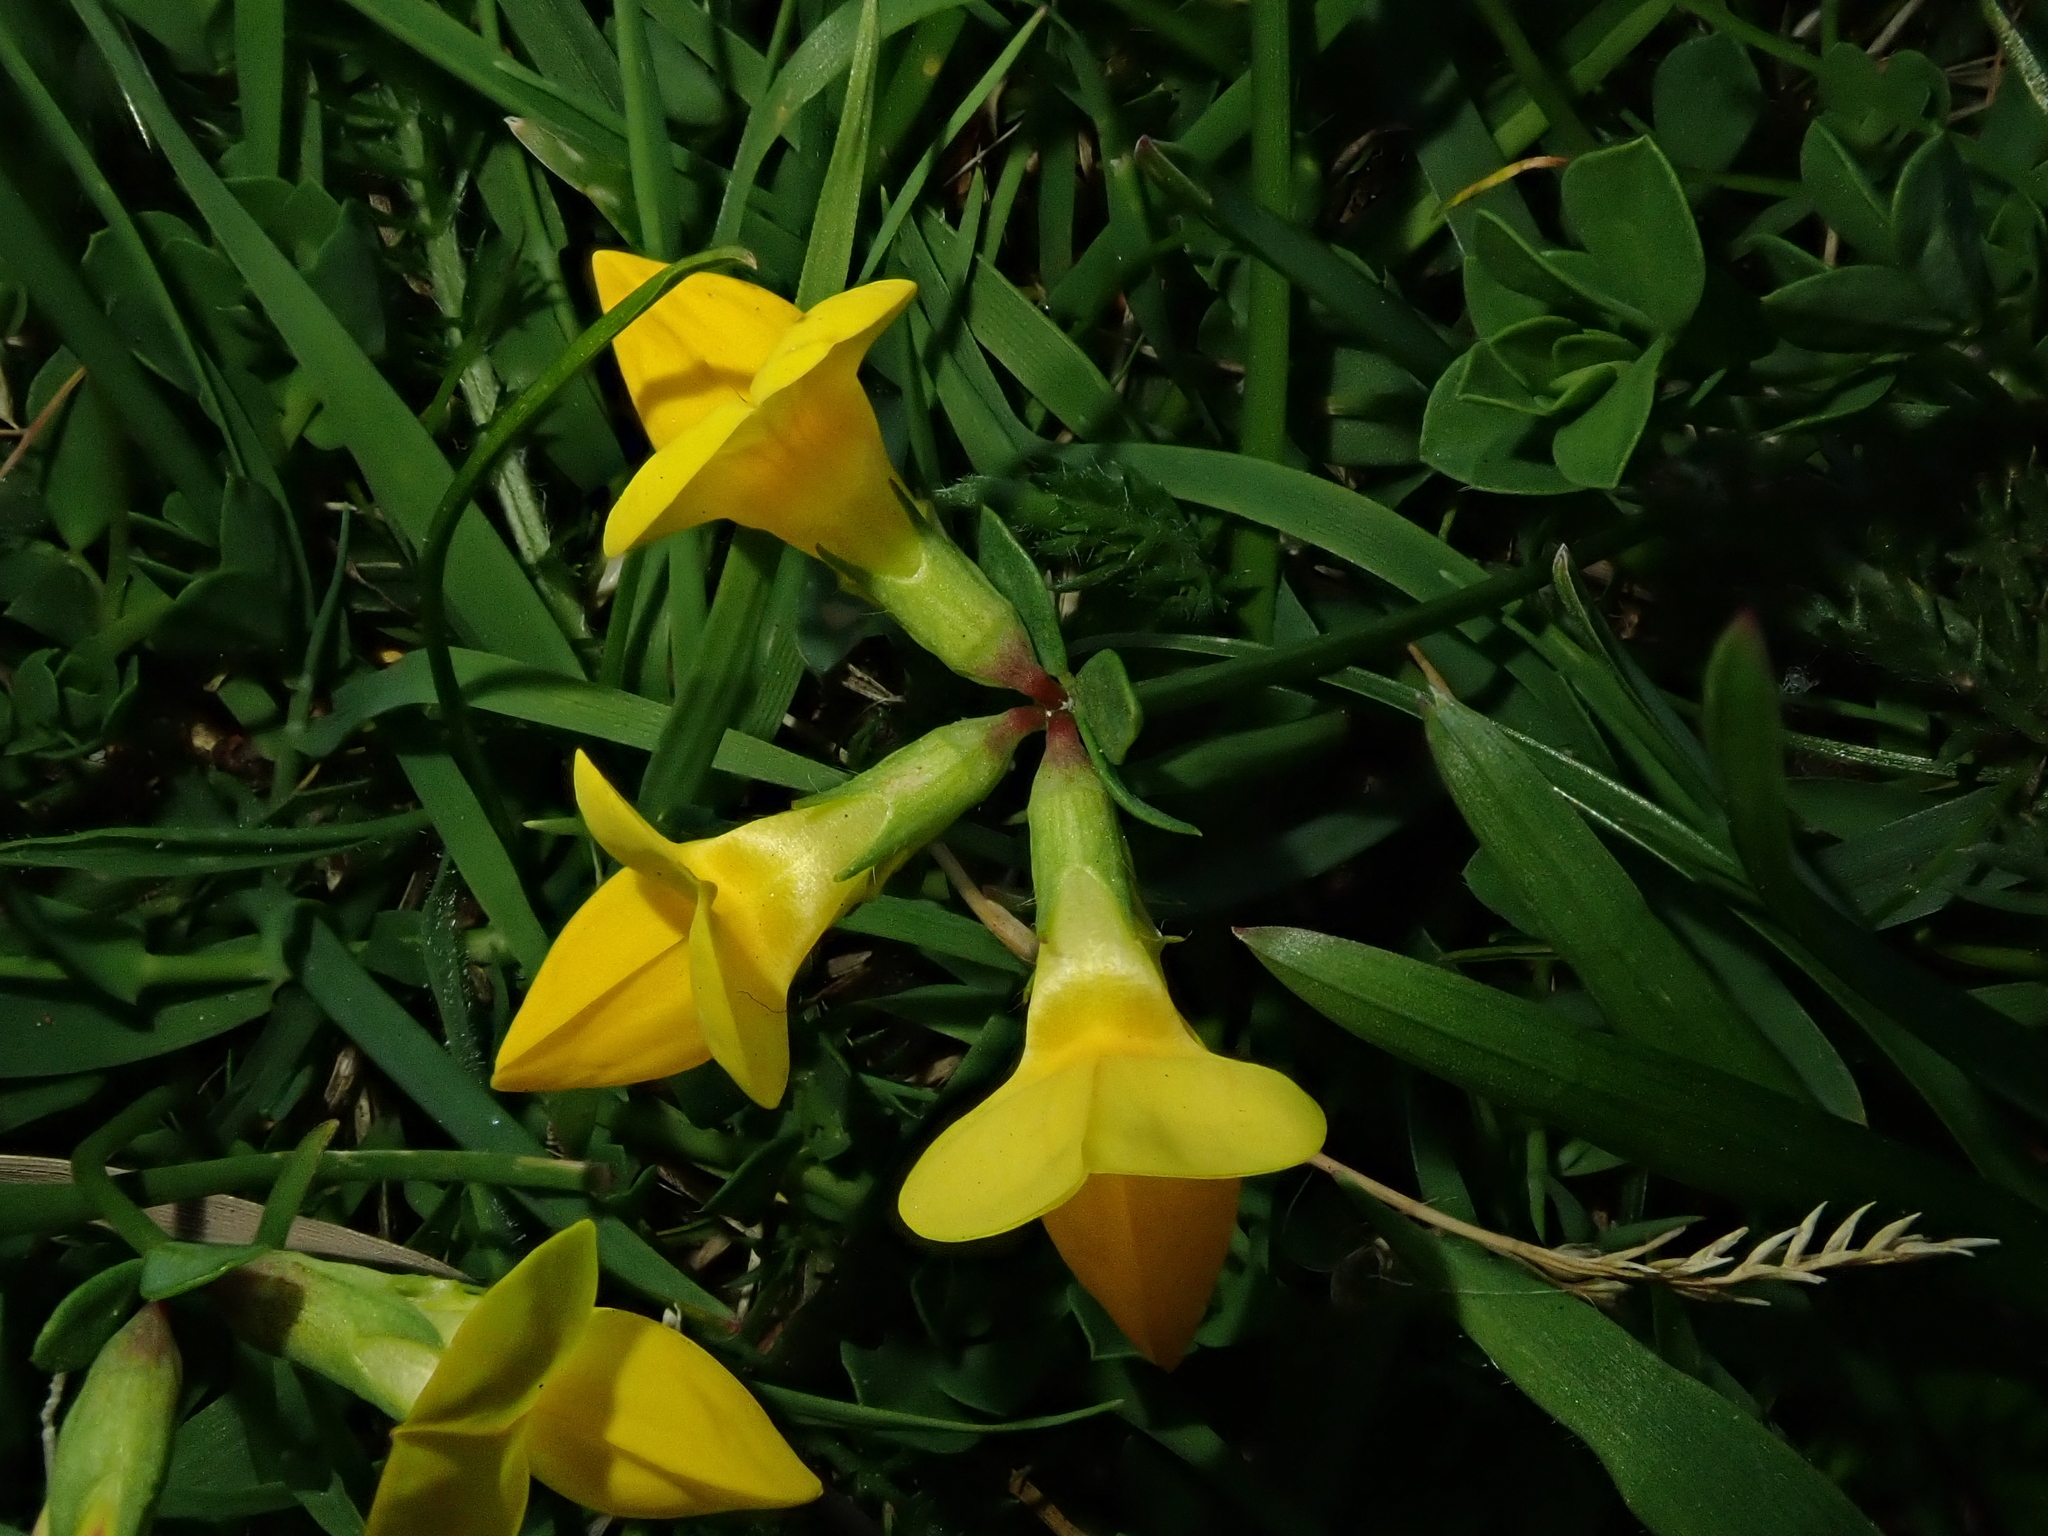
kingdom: Plantae
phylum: Tracheophyta
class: Magnoliopsida
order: Fabales
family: Fabaceae
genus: Lotus
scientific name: Lotus corniculatus
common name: Common bird's-foot-trefoil
